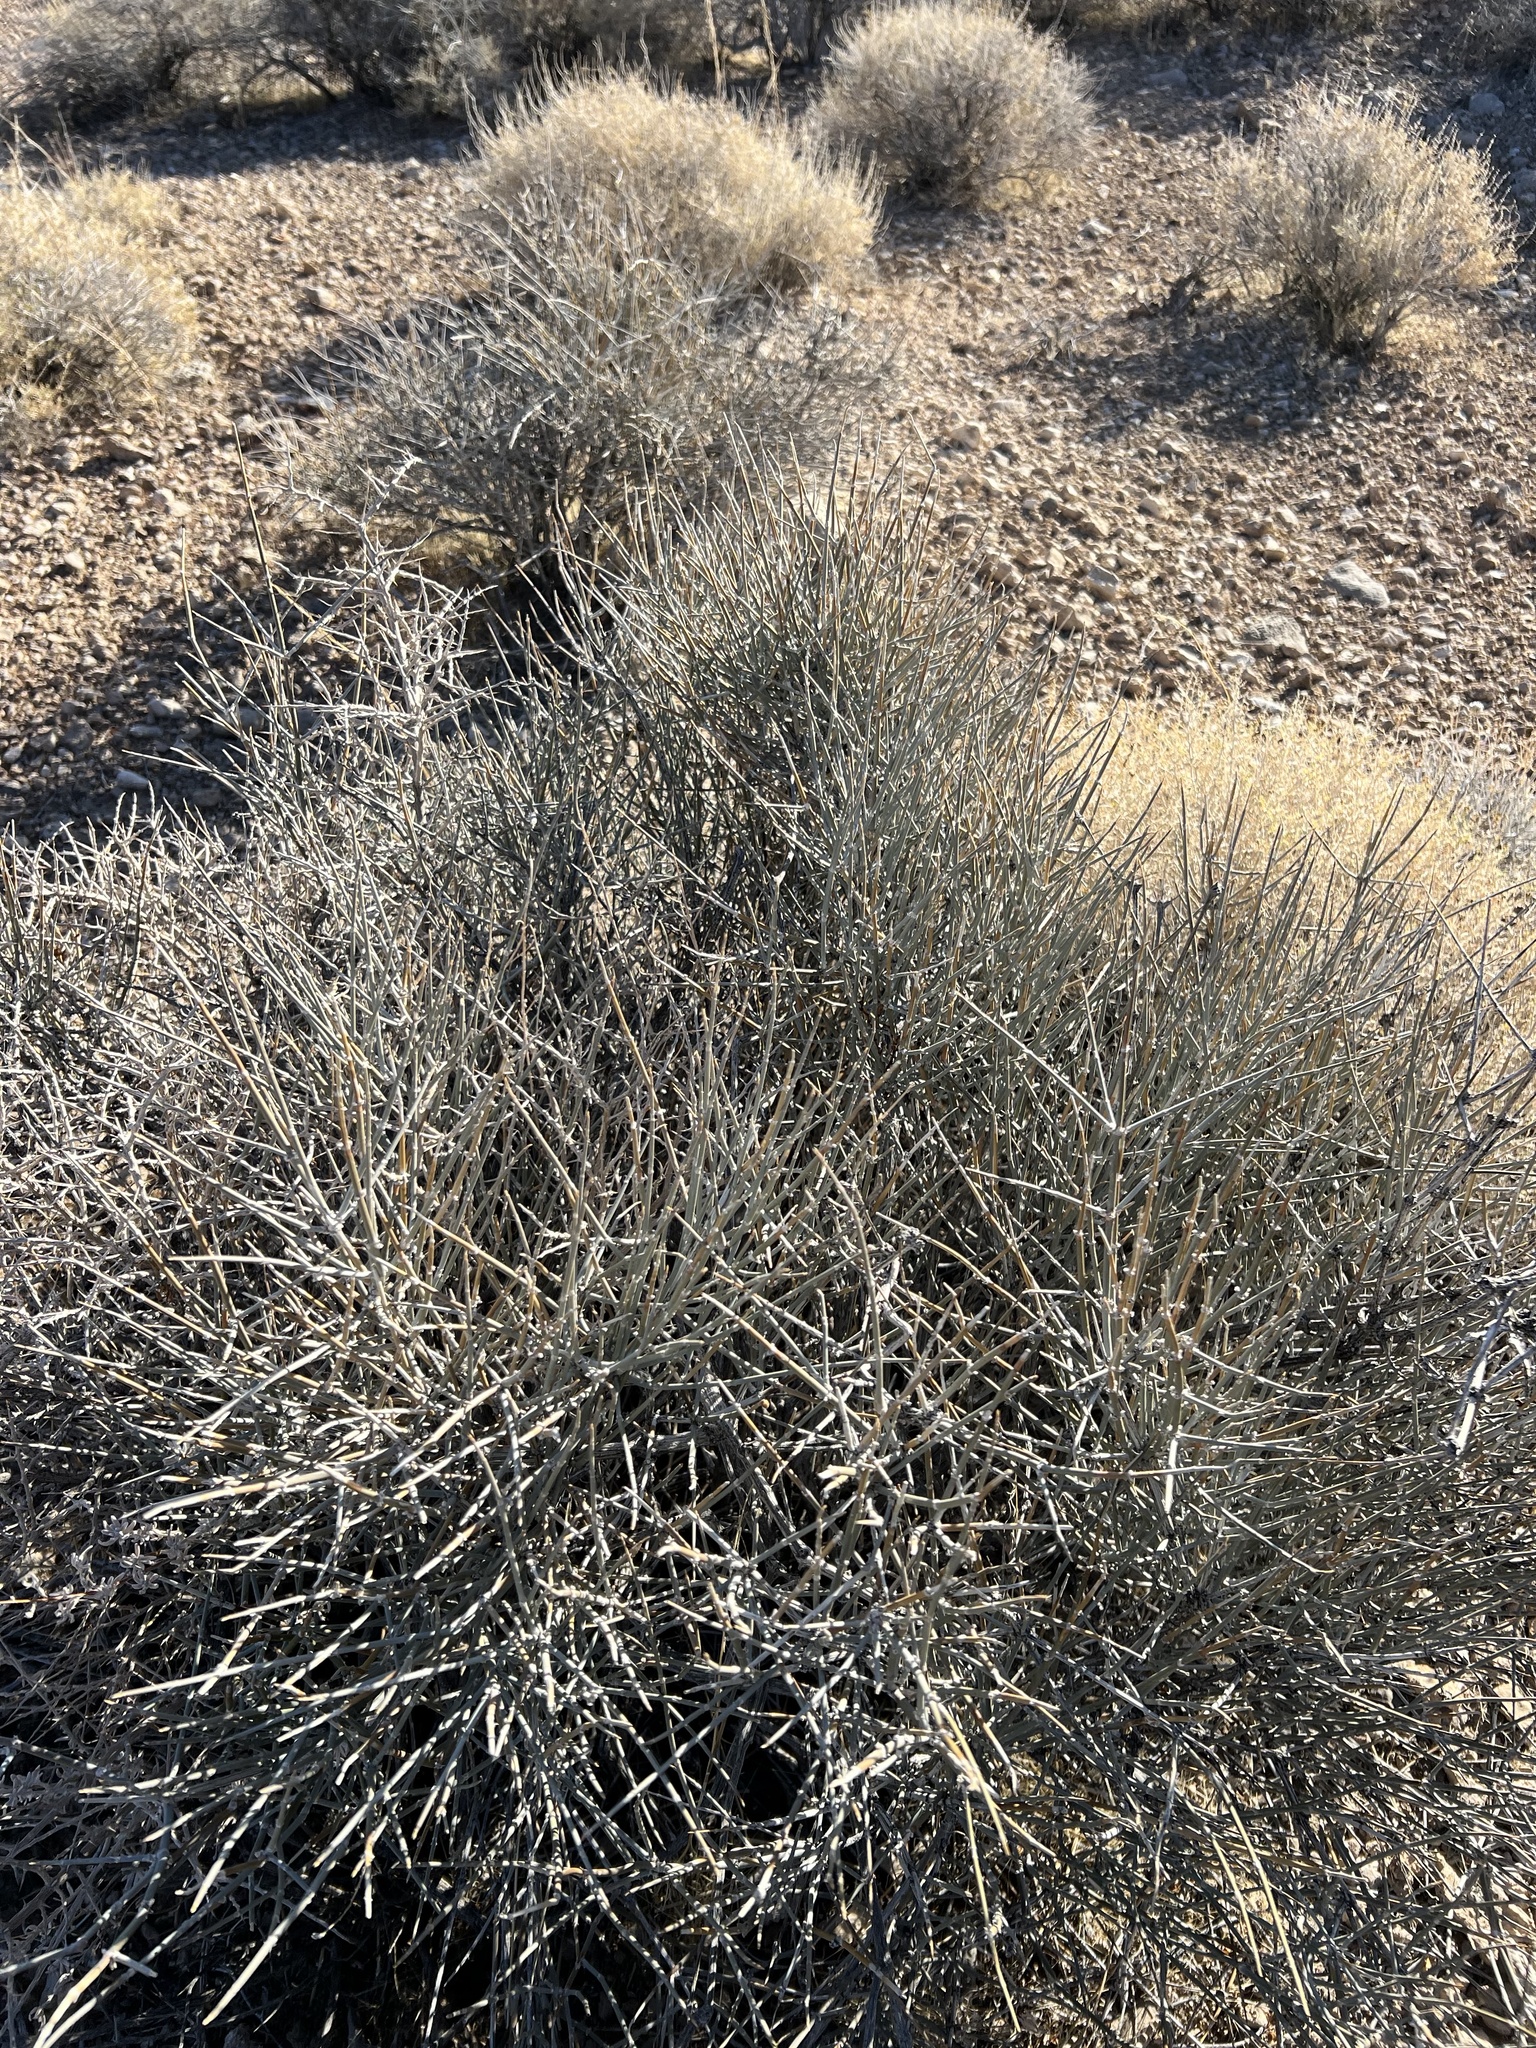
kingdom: Plantae
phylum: Tracheophyta
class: Gnetopsida
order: Ephedrales
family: Ephedraceae
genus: Ephedra
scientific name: Ephedra nevadensis
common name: Gray ephedra
